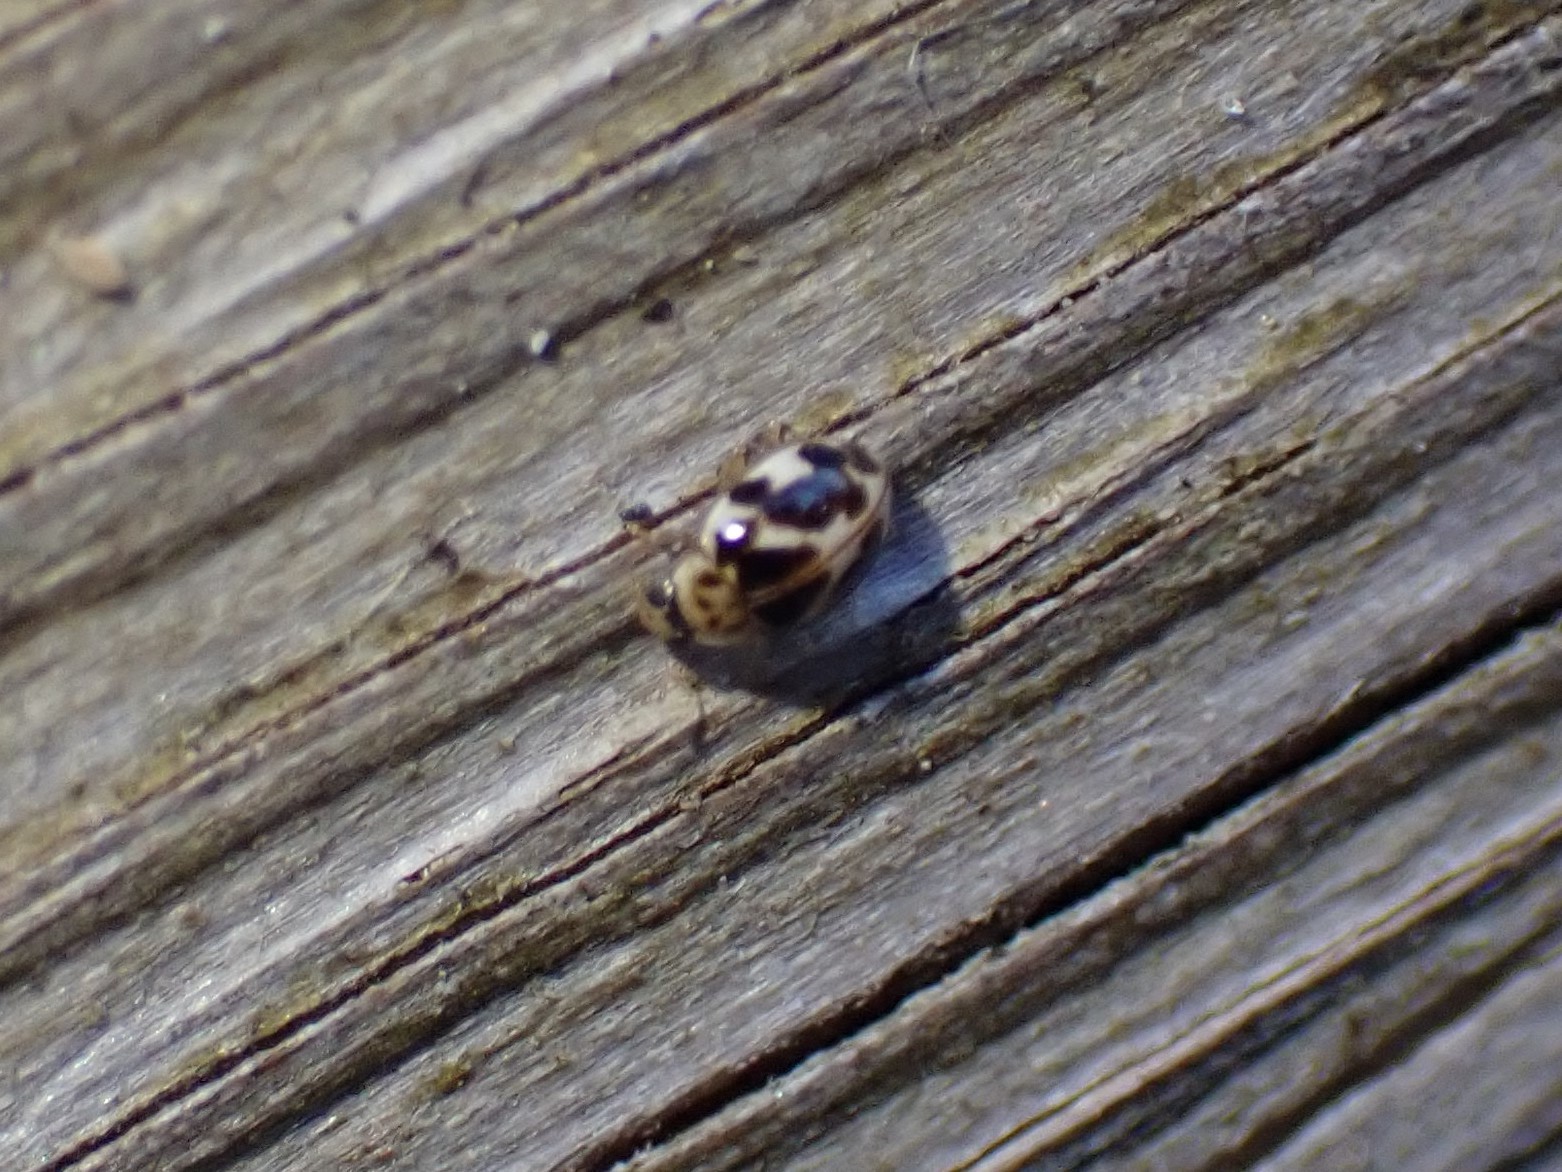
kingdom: Animalia
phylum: Arthropoda
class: Insecta
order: Coleoptera
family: Coccinellidae
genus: Psyllobora
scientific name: Psyllobora vigintimaculata
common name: Ladybird beetle
